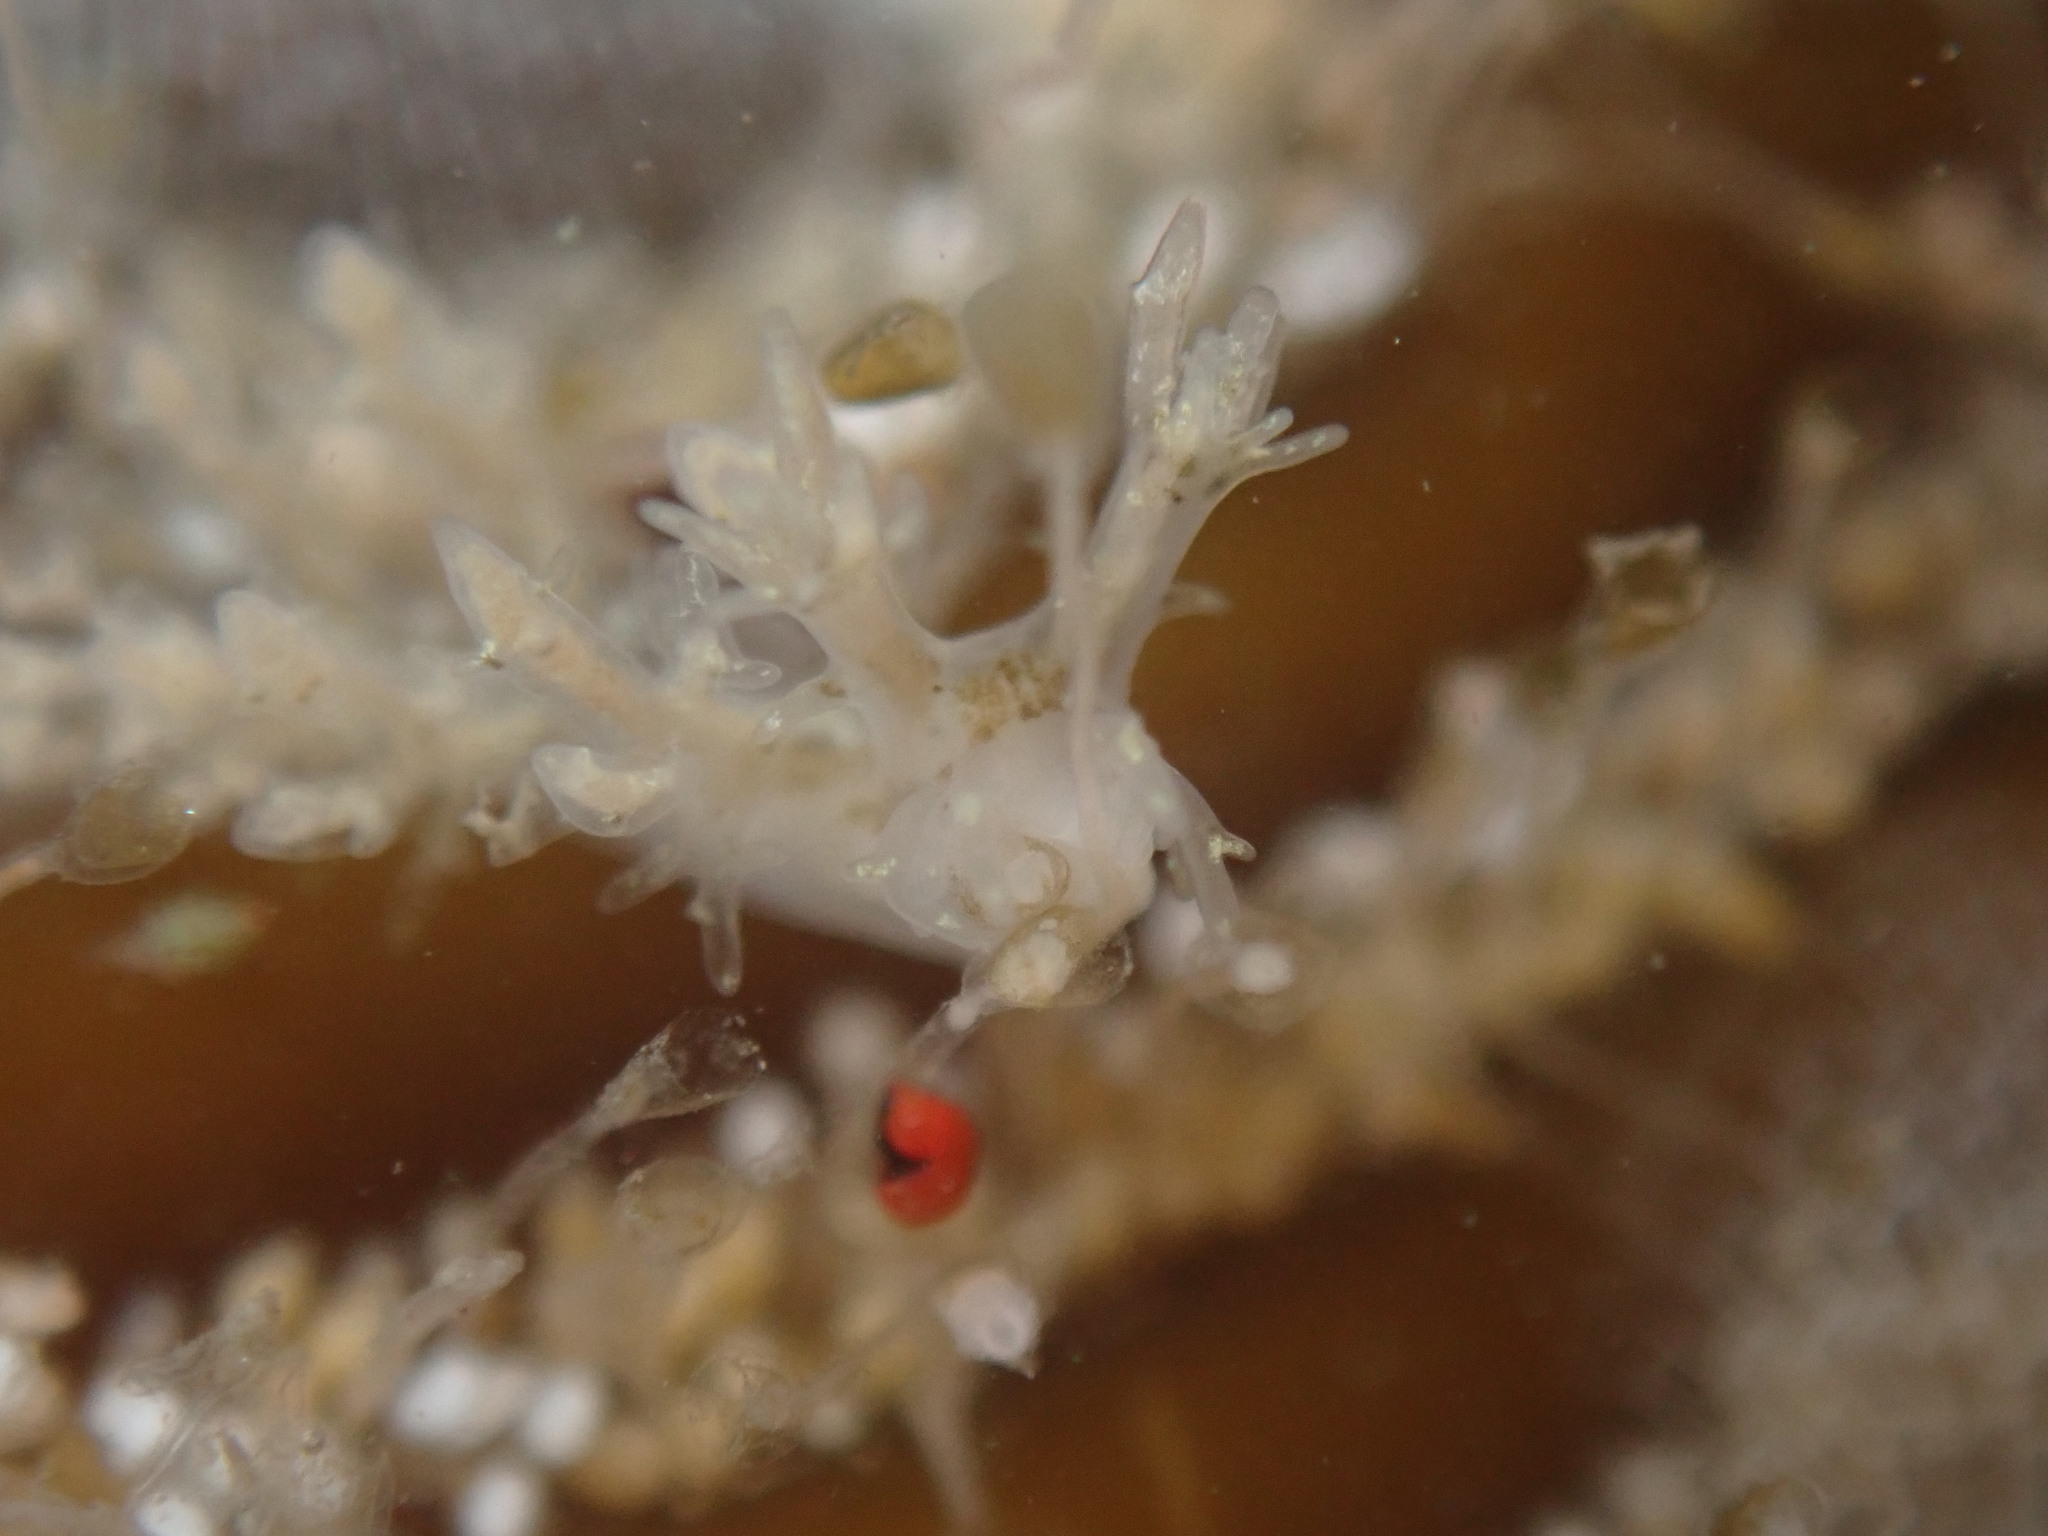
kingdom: Animalia
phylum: Mollusca
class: Gastropoda
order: Nudibranchia
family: Dendronotidae
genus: Dendronotus
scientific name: Dendronotus venustus
